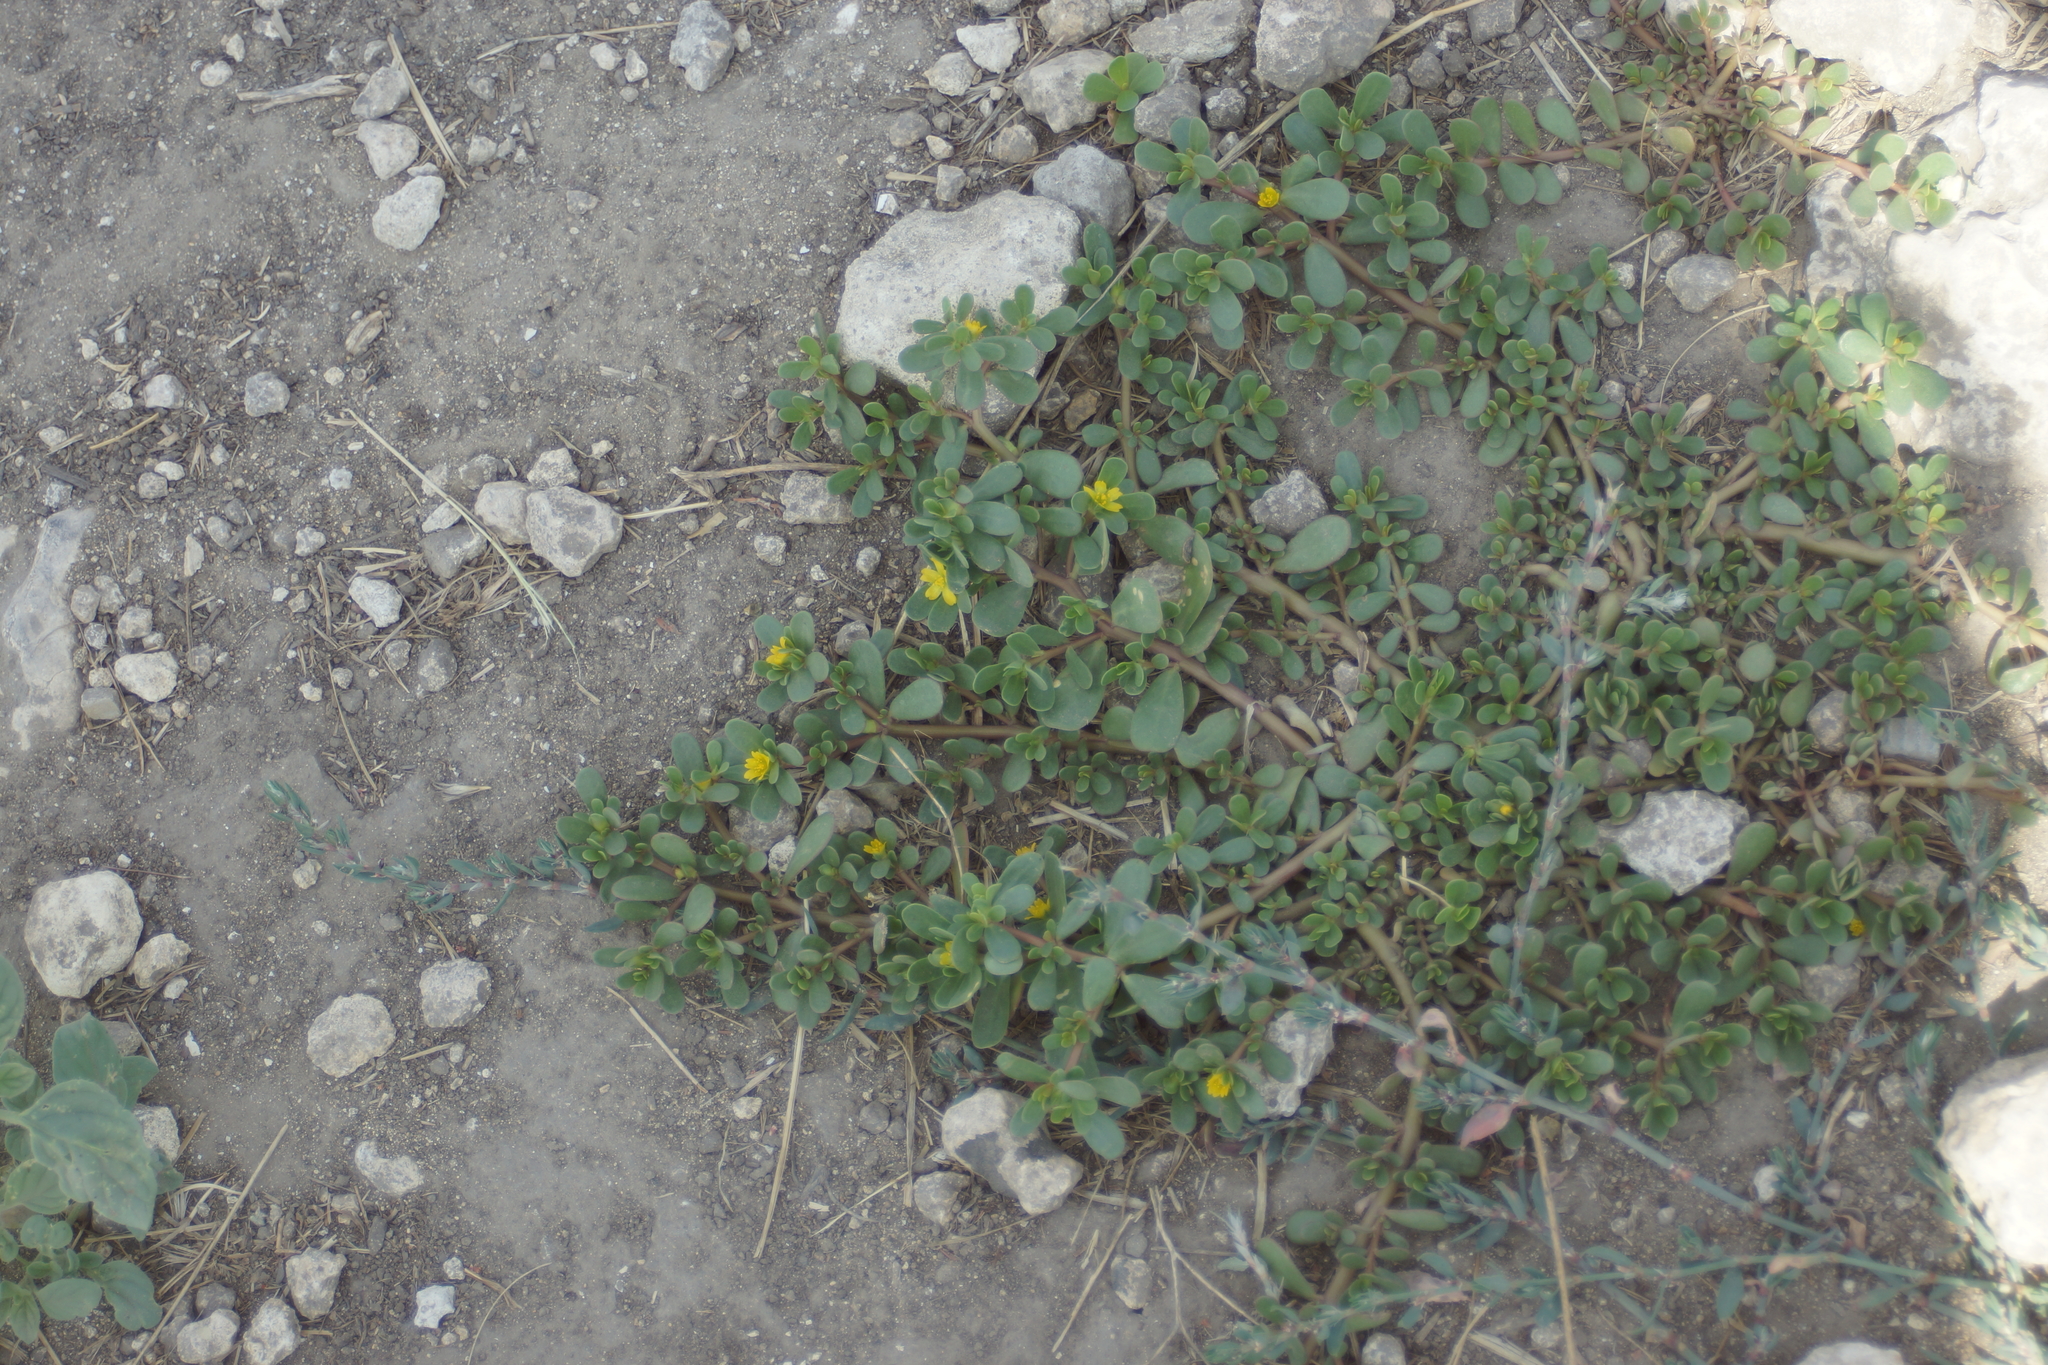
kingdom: Plantae
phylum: Tracheophyta
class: Magnoliopsida
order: Caryophyllales
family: Portulacaceae
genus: Portulaca
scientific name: Portulaca oleracea
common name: Common purslane
